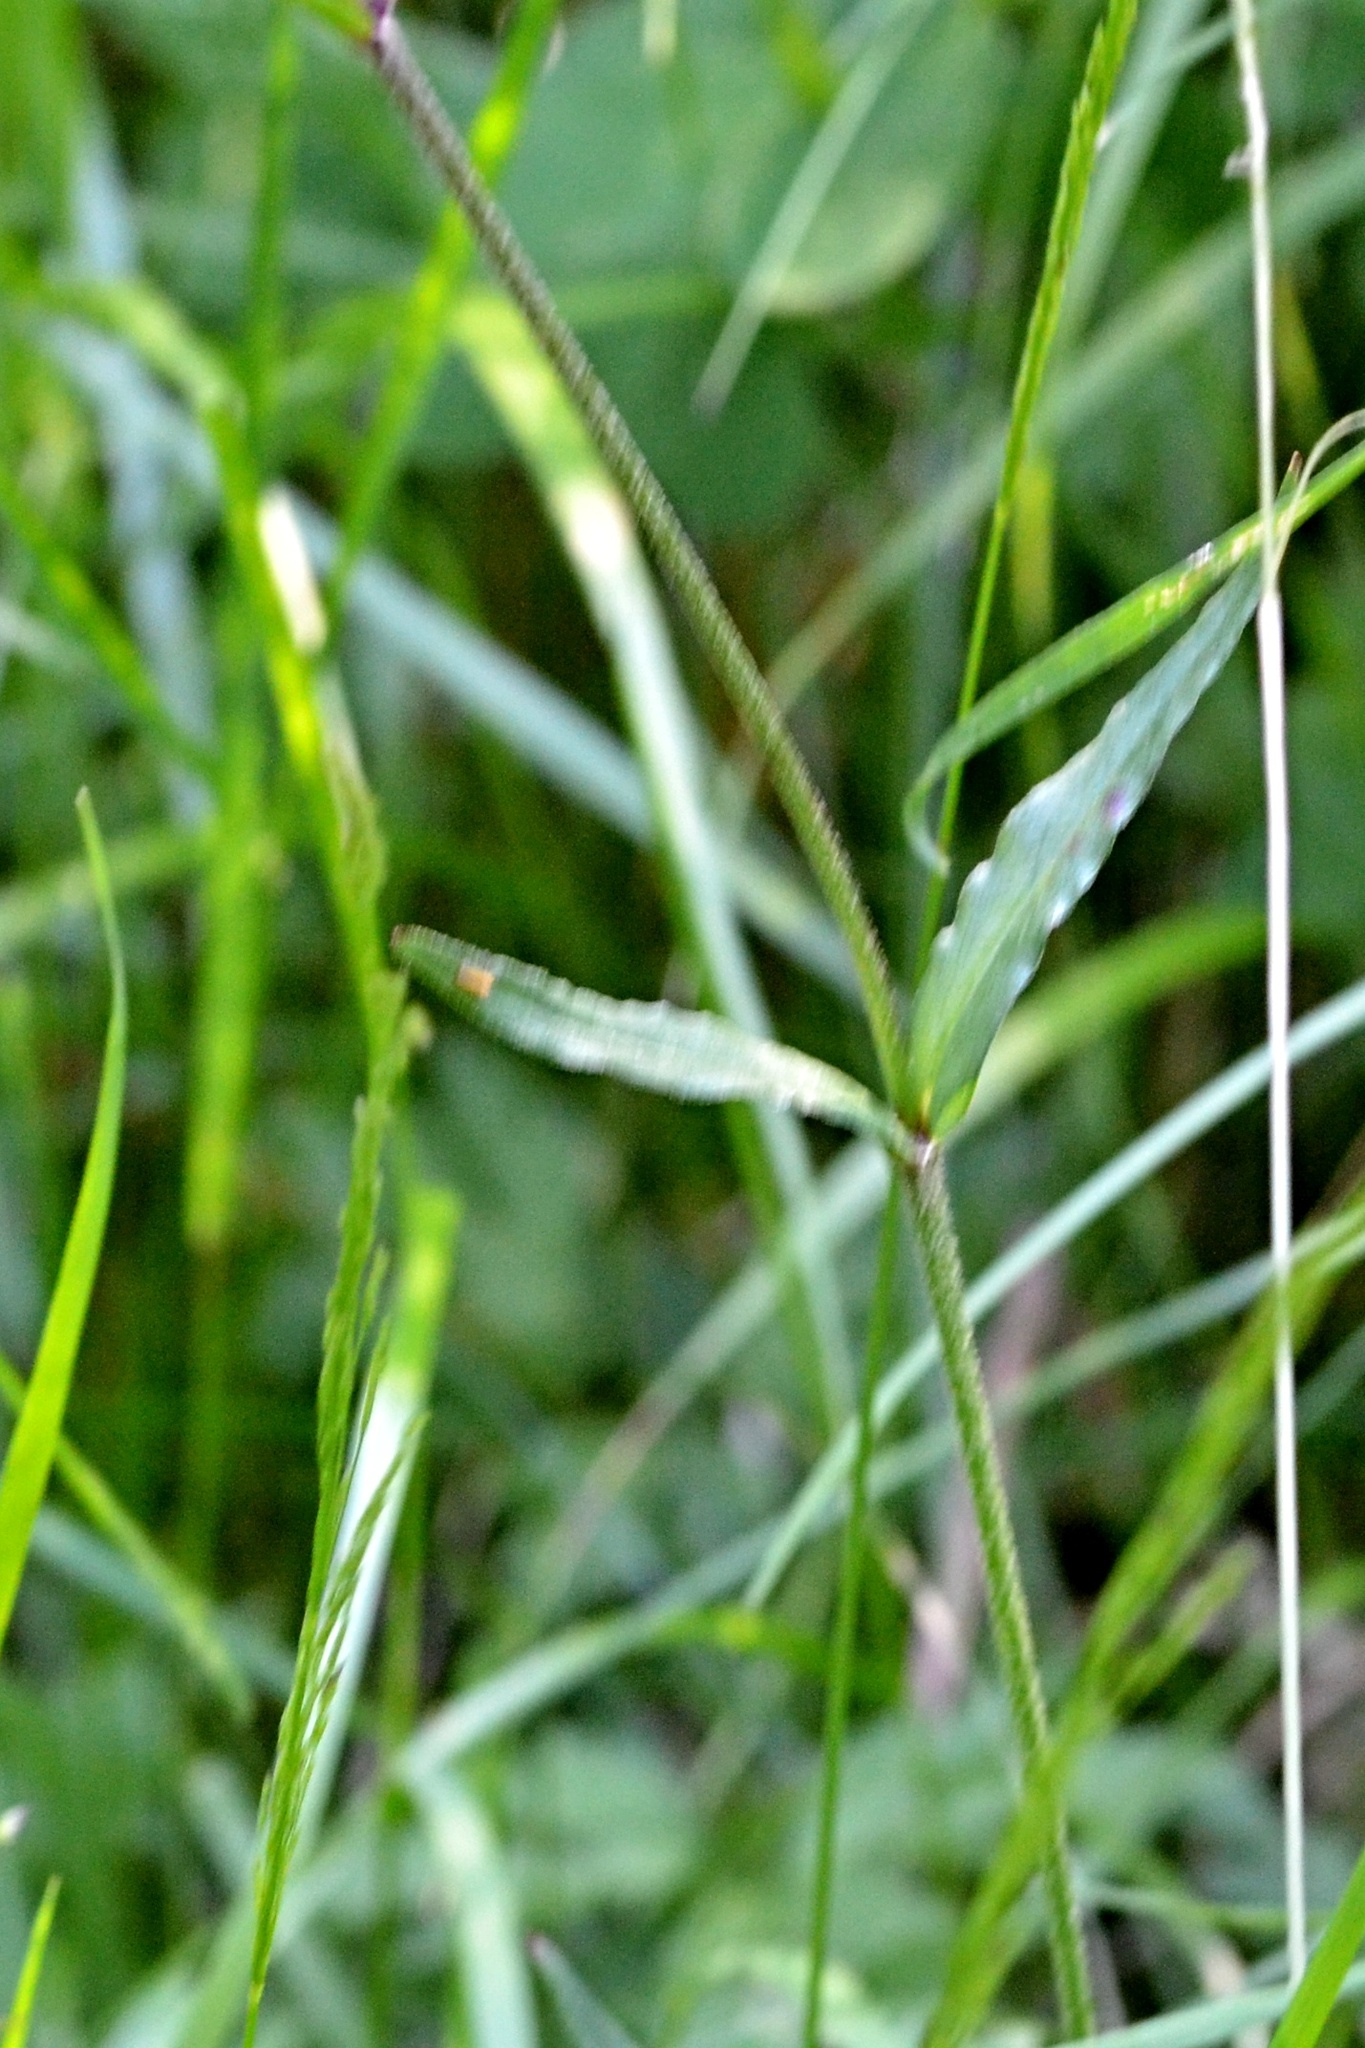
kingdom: Plantae
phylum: Tracheophyta
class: Magnoliopsida
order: Caryophyllales
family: Caryophyllaceae
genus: Silene
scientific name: Silene flos-cuculi
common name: Ragged-robin
